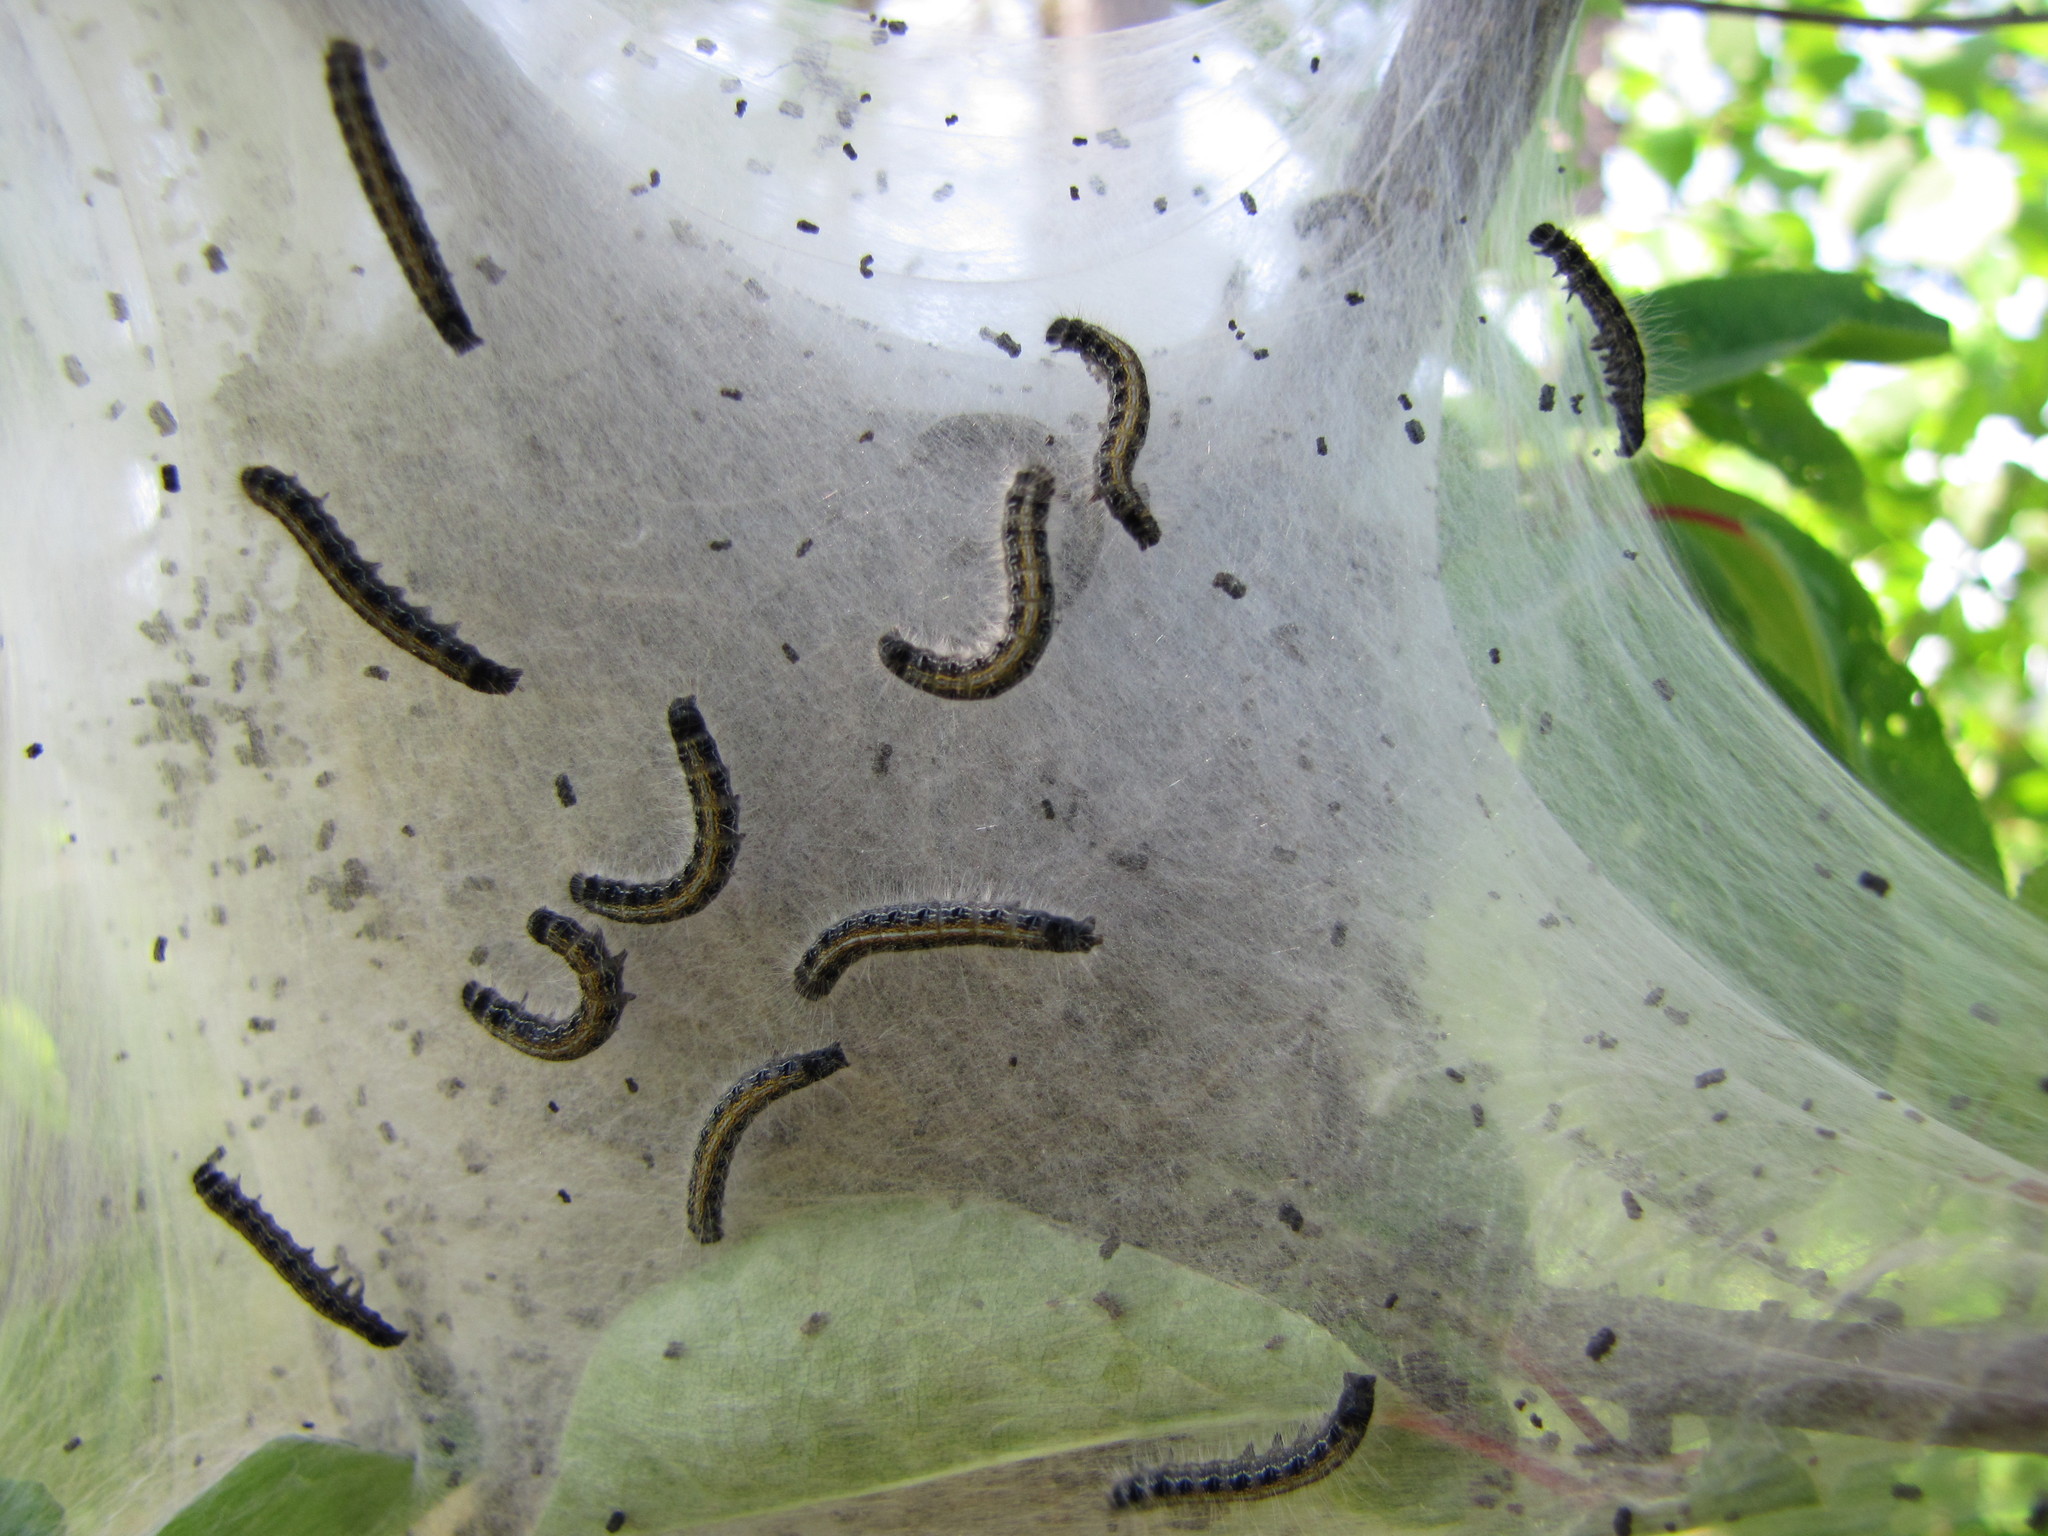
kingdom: Animalia
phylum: Arthropoda
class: Insecta
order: Lepidoptera
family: Lasiocampidae
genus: Malacosoma
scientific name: Malacosoma americana
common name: Eastern tent caterpillar moth
